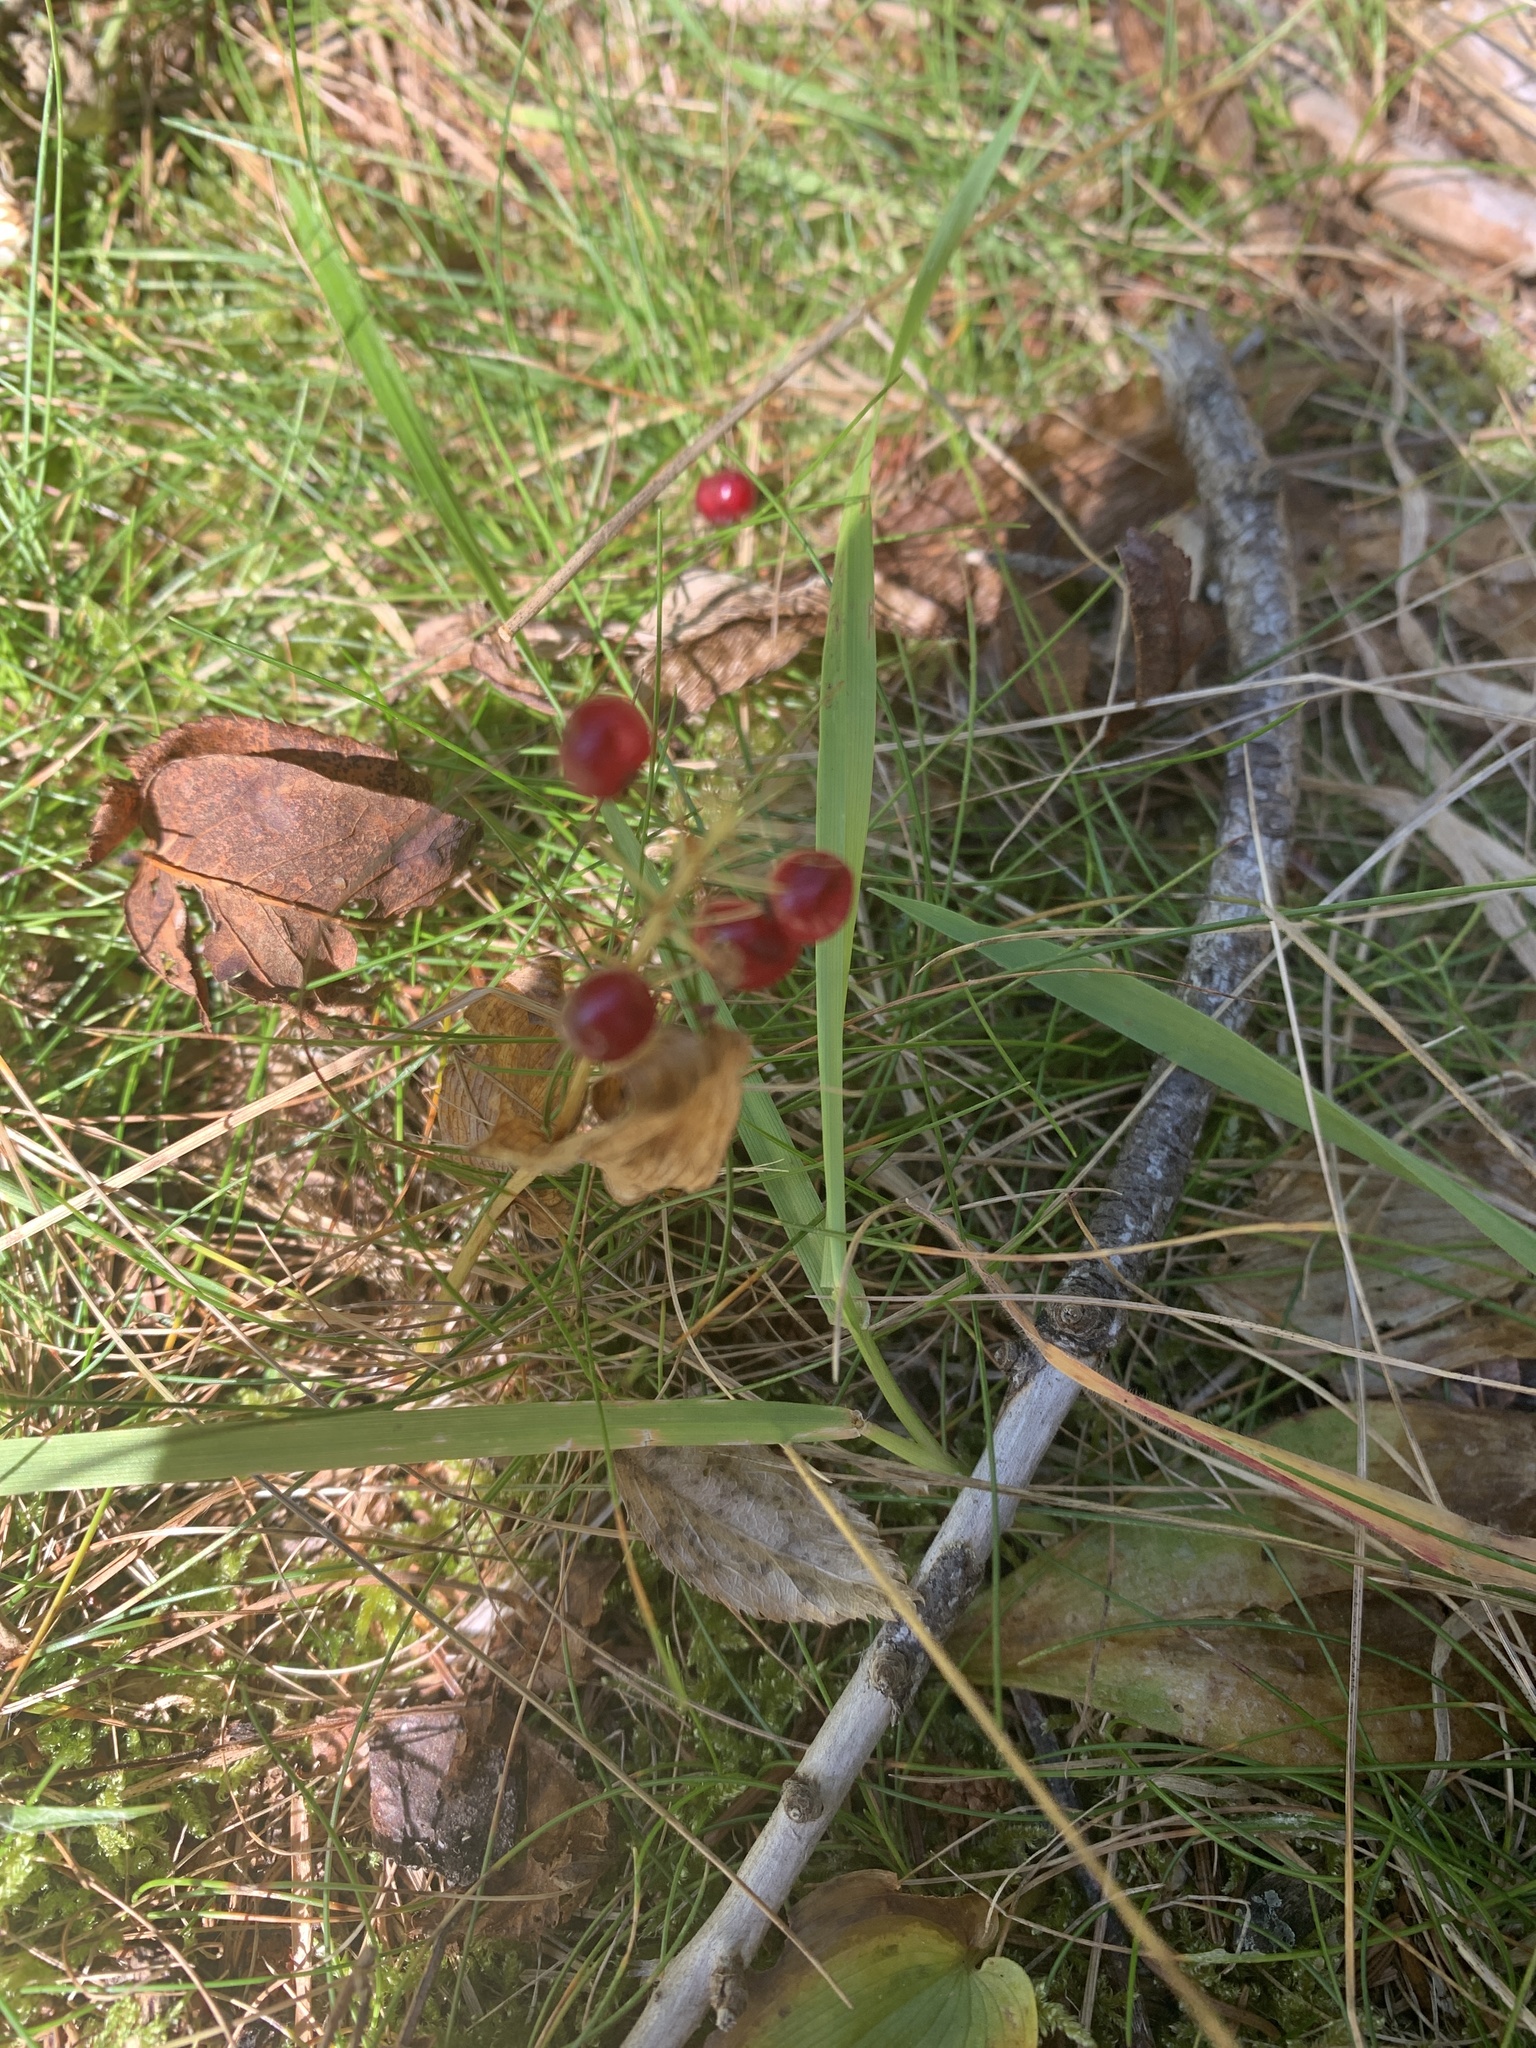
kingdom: Plantae
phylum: Tracheophyta
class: Liliopsida
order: Asparagales
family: Asparagaceae
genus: Maianthemum
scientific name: Maianthemum canadense
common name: False lily-of-the-valley
